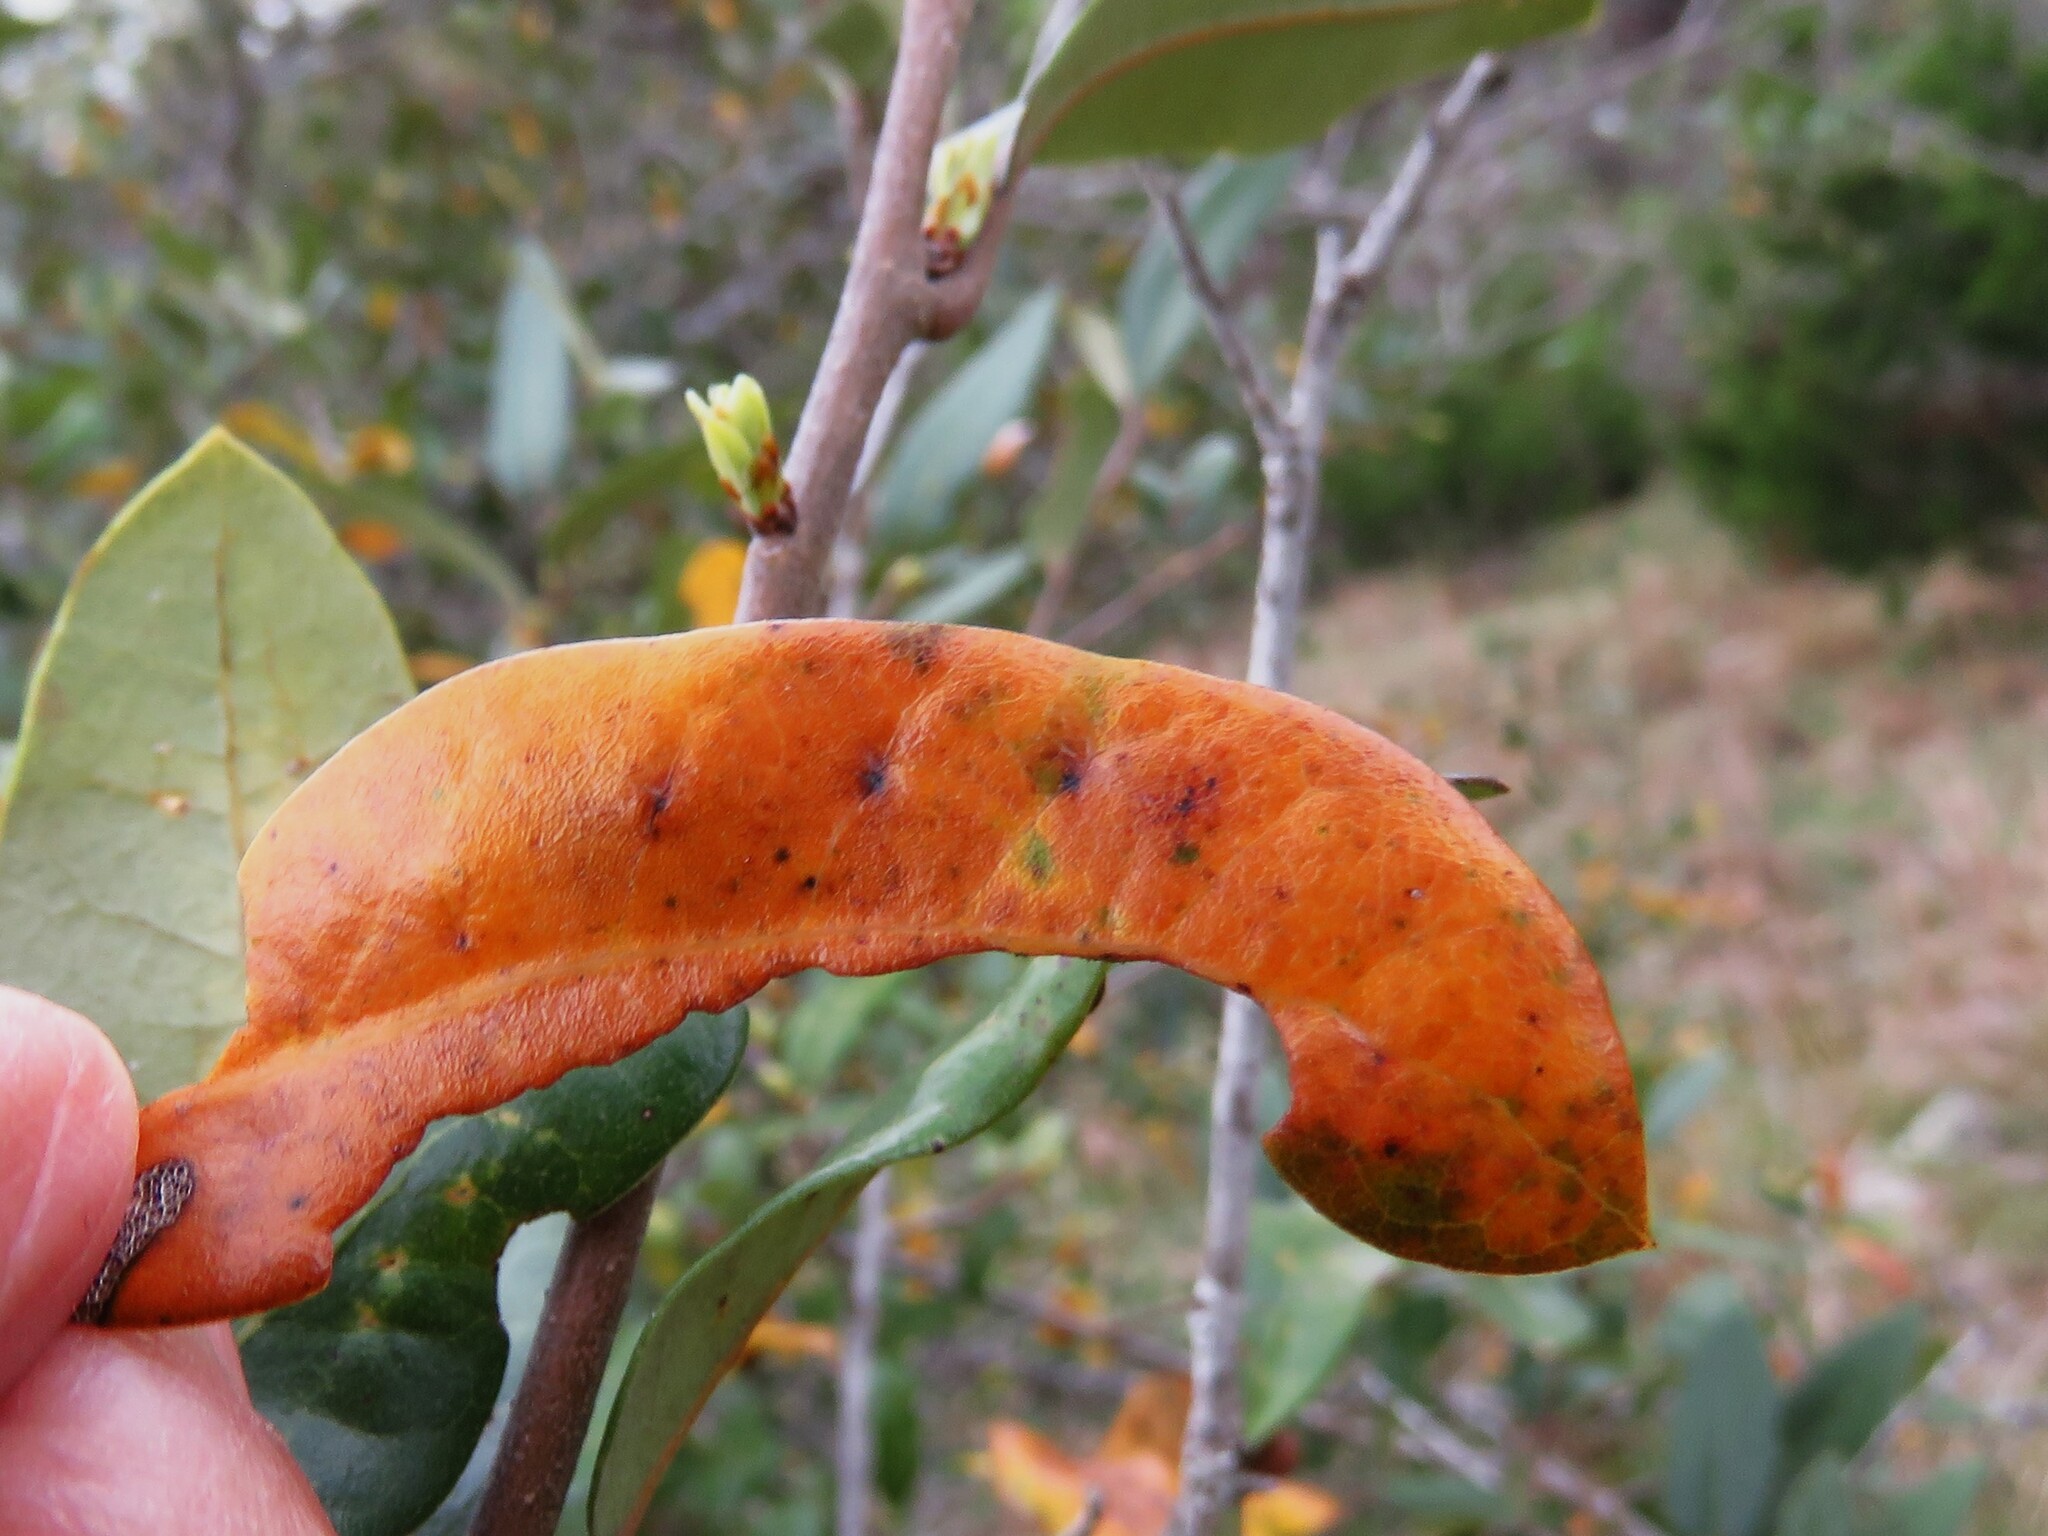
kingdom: Animalia
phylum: Arthropoda
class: Insecta
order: Hymenoptera
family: Cynipidae
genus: Belonocnema
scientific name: Belonocnema kinseyi
